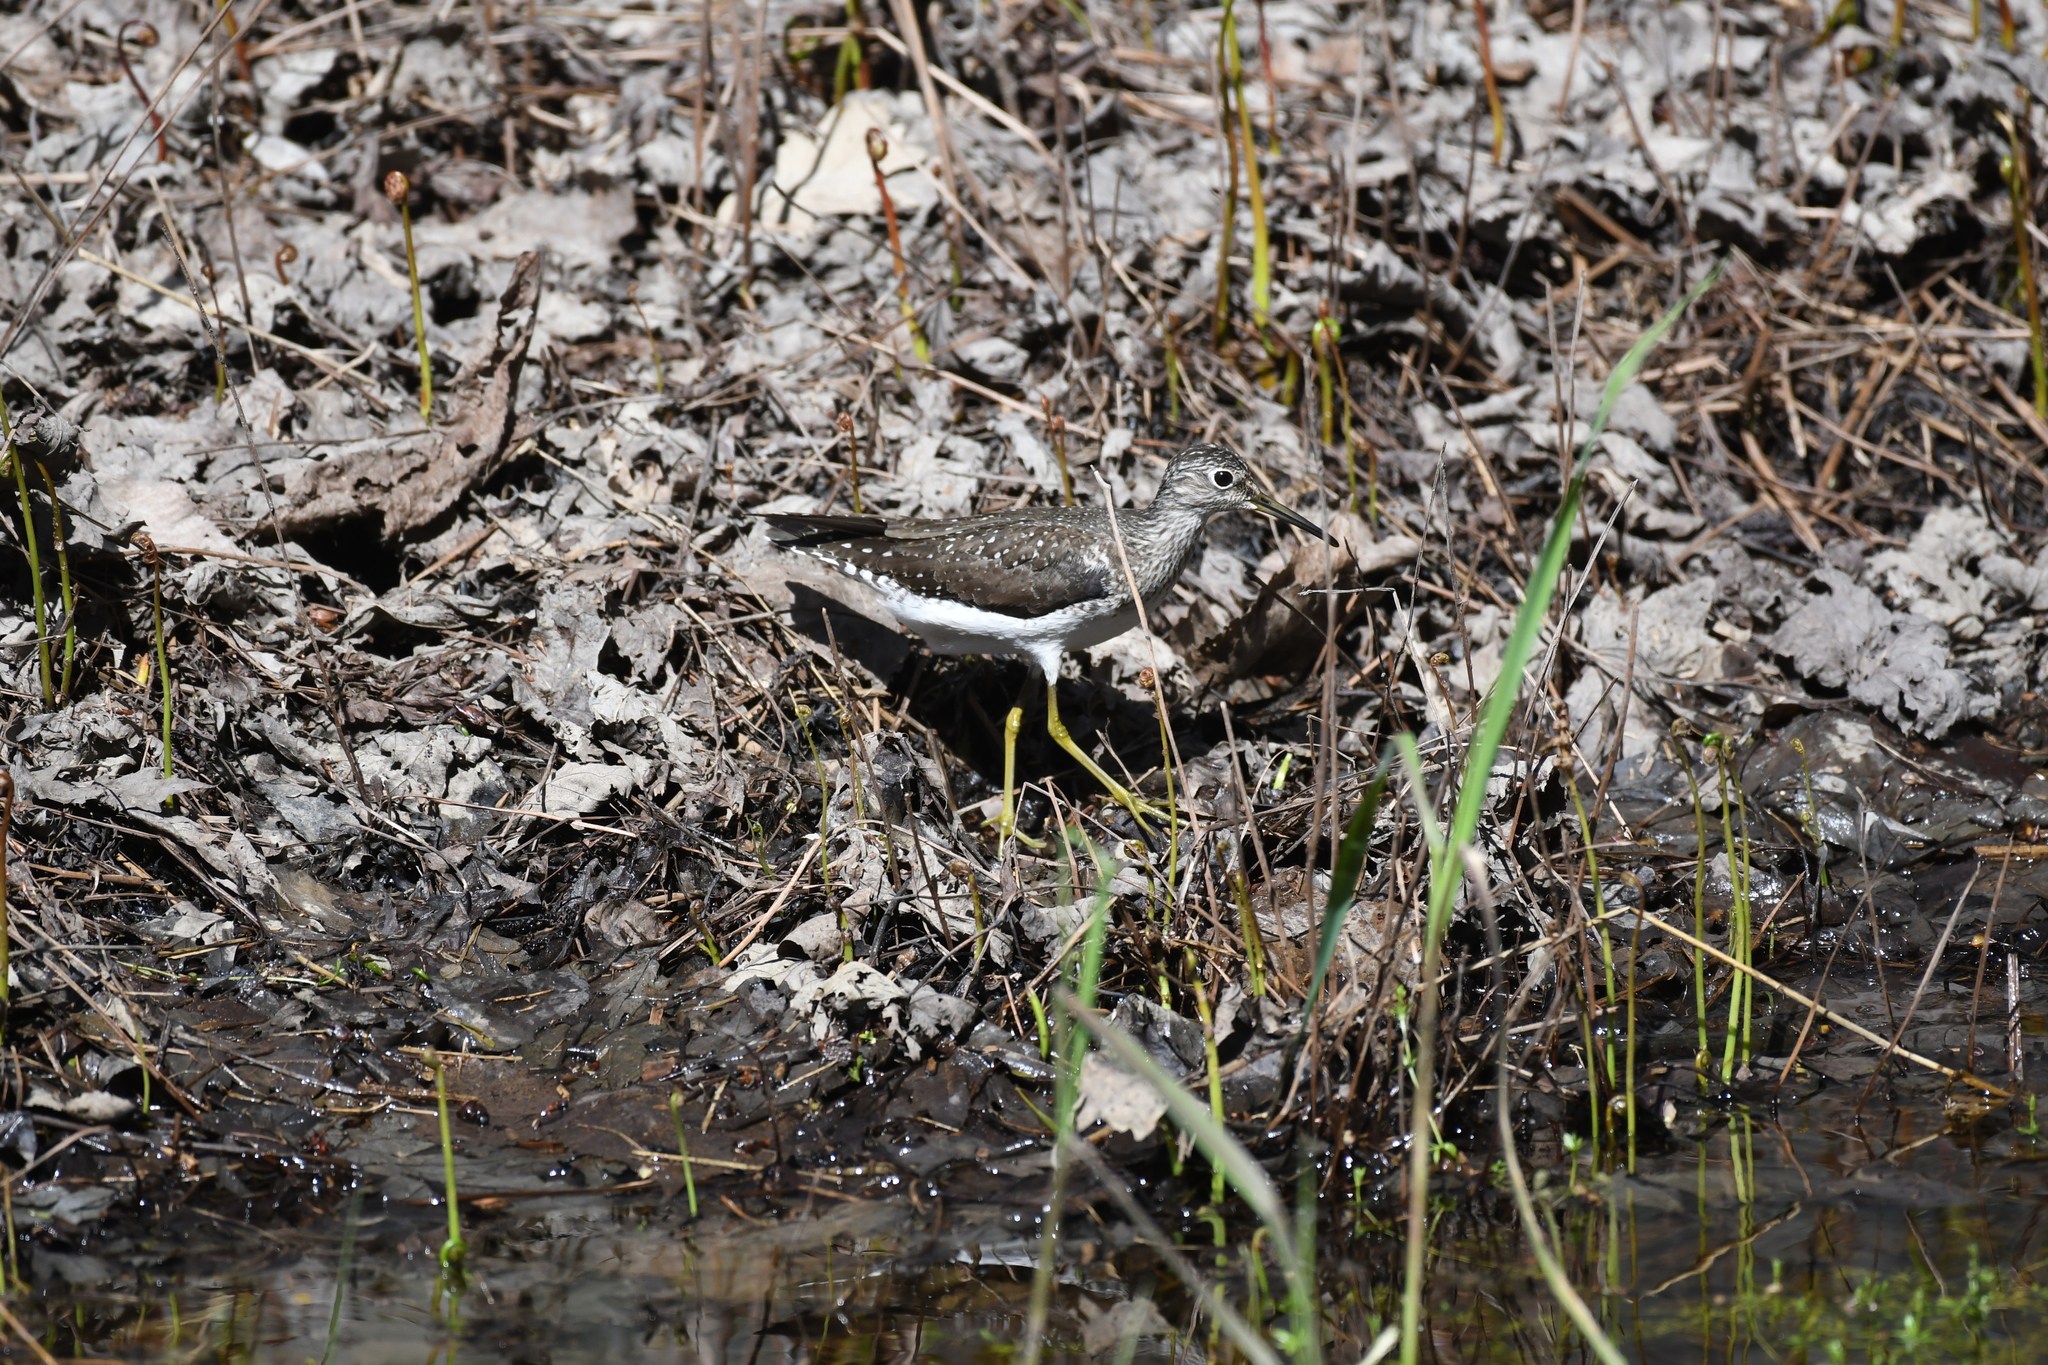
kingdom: Animalia
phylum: Chordata
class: Aves
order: Charadriiformes
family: Scolopacidae
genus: Tringa
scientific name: Tringa solitaria
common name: Solitary sandpiper
